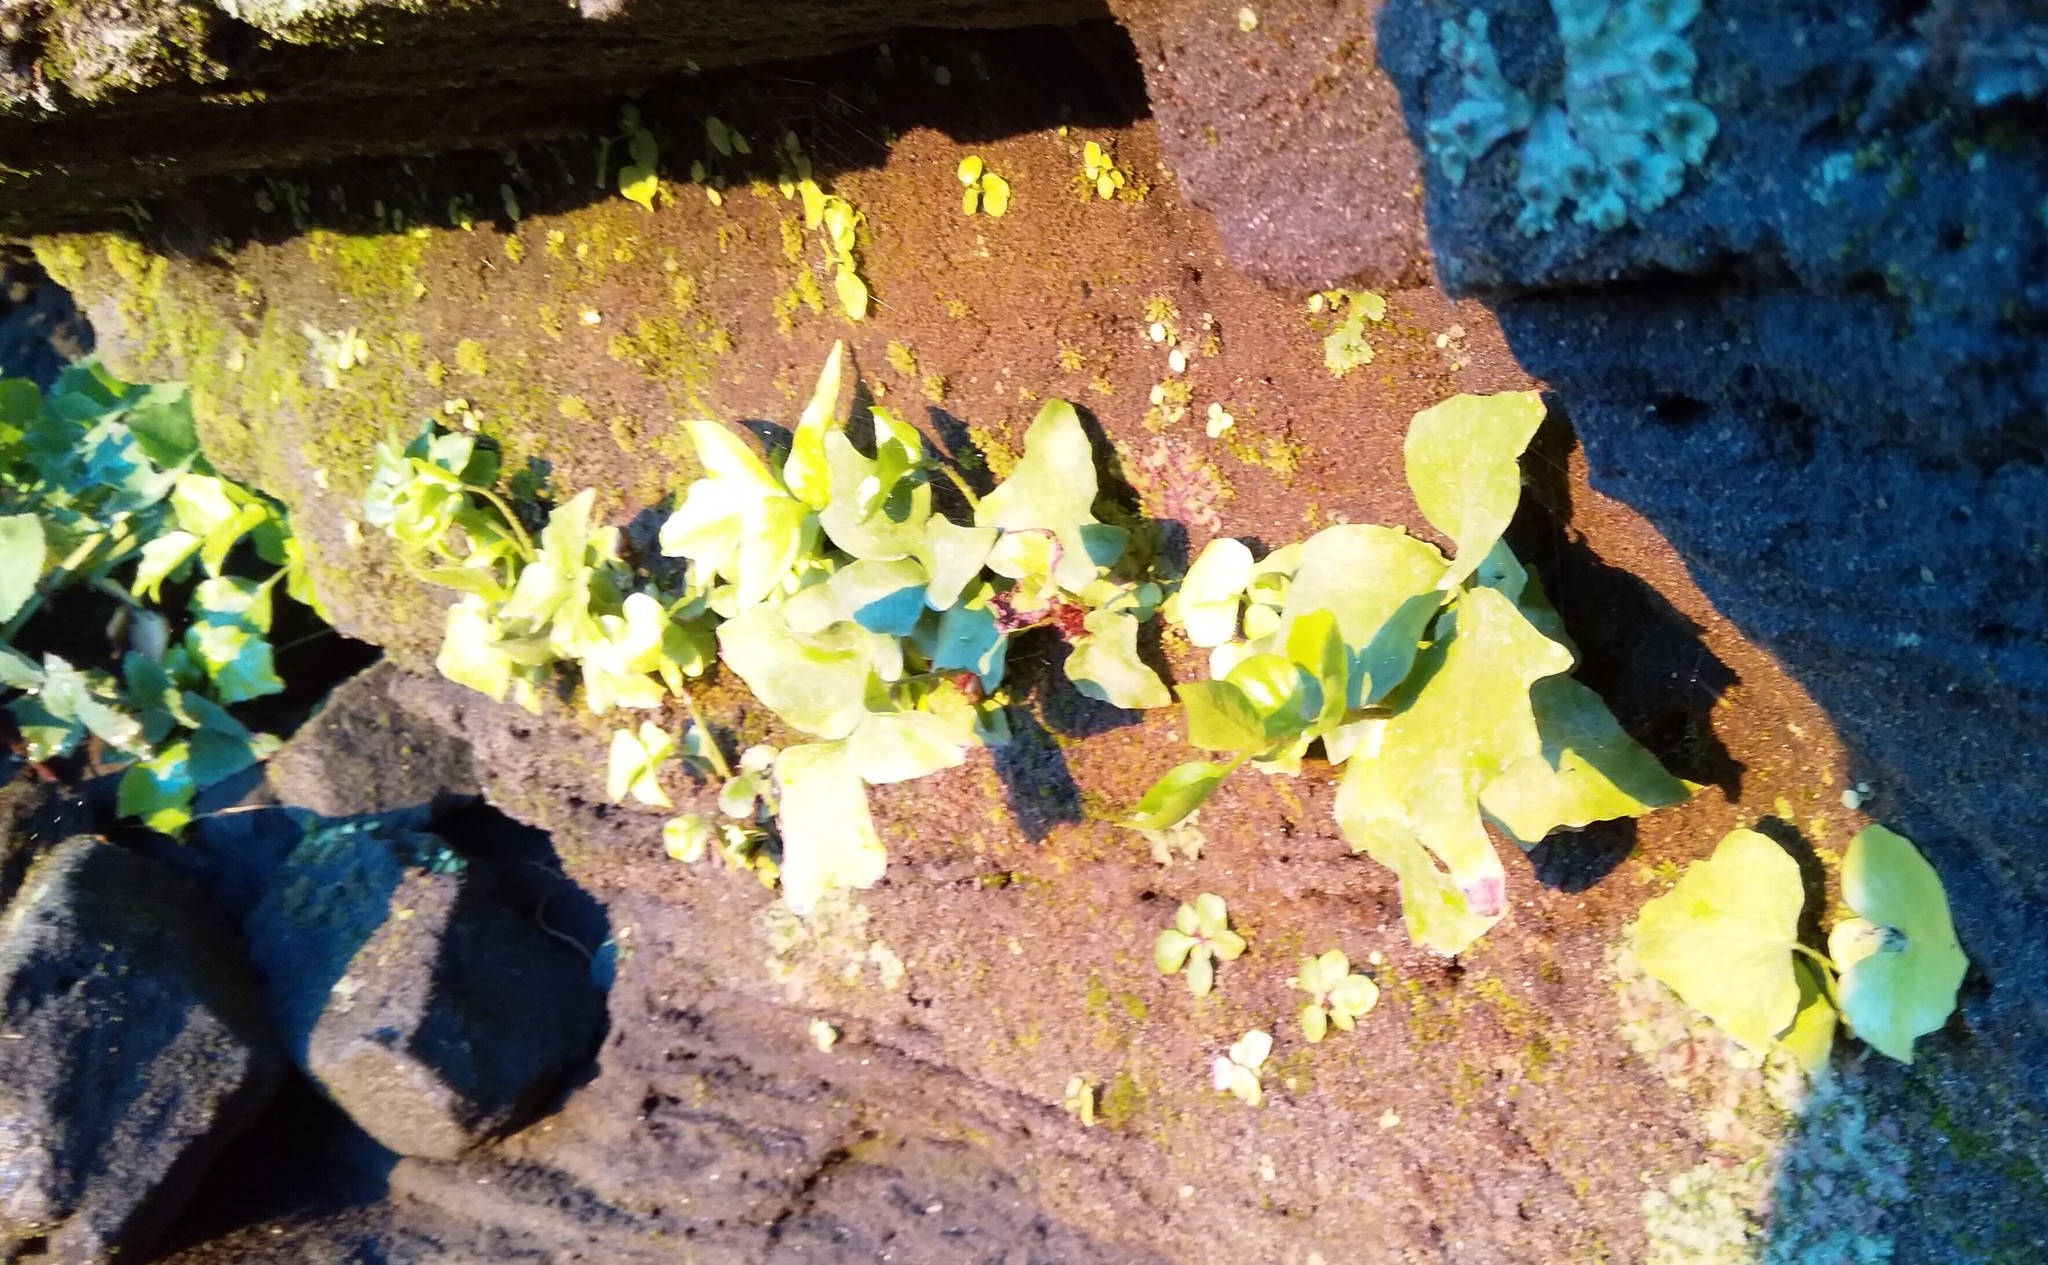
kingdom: Plantae
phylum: Tracheophyta
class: Polypodiopsida
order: Polypodiales
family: Dryopteridaceae
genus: Cyrtomium
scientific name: Cyrtomium falcatum
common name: House holly-fern
